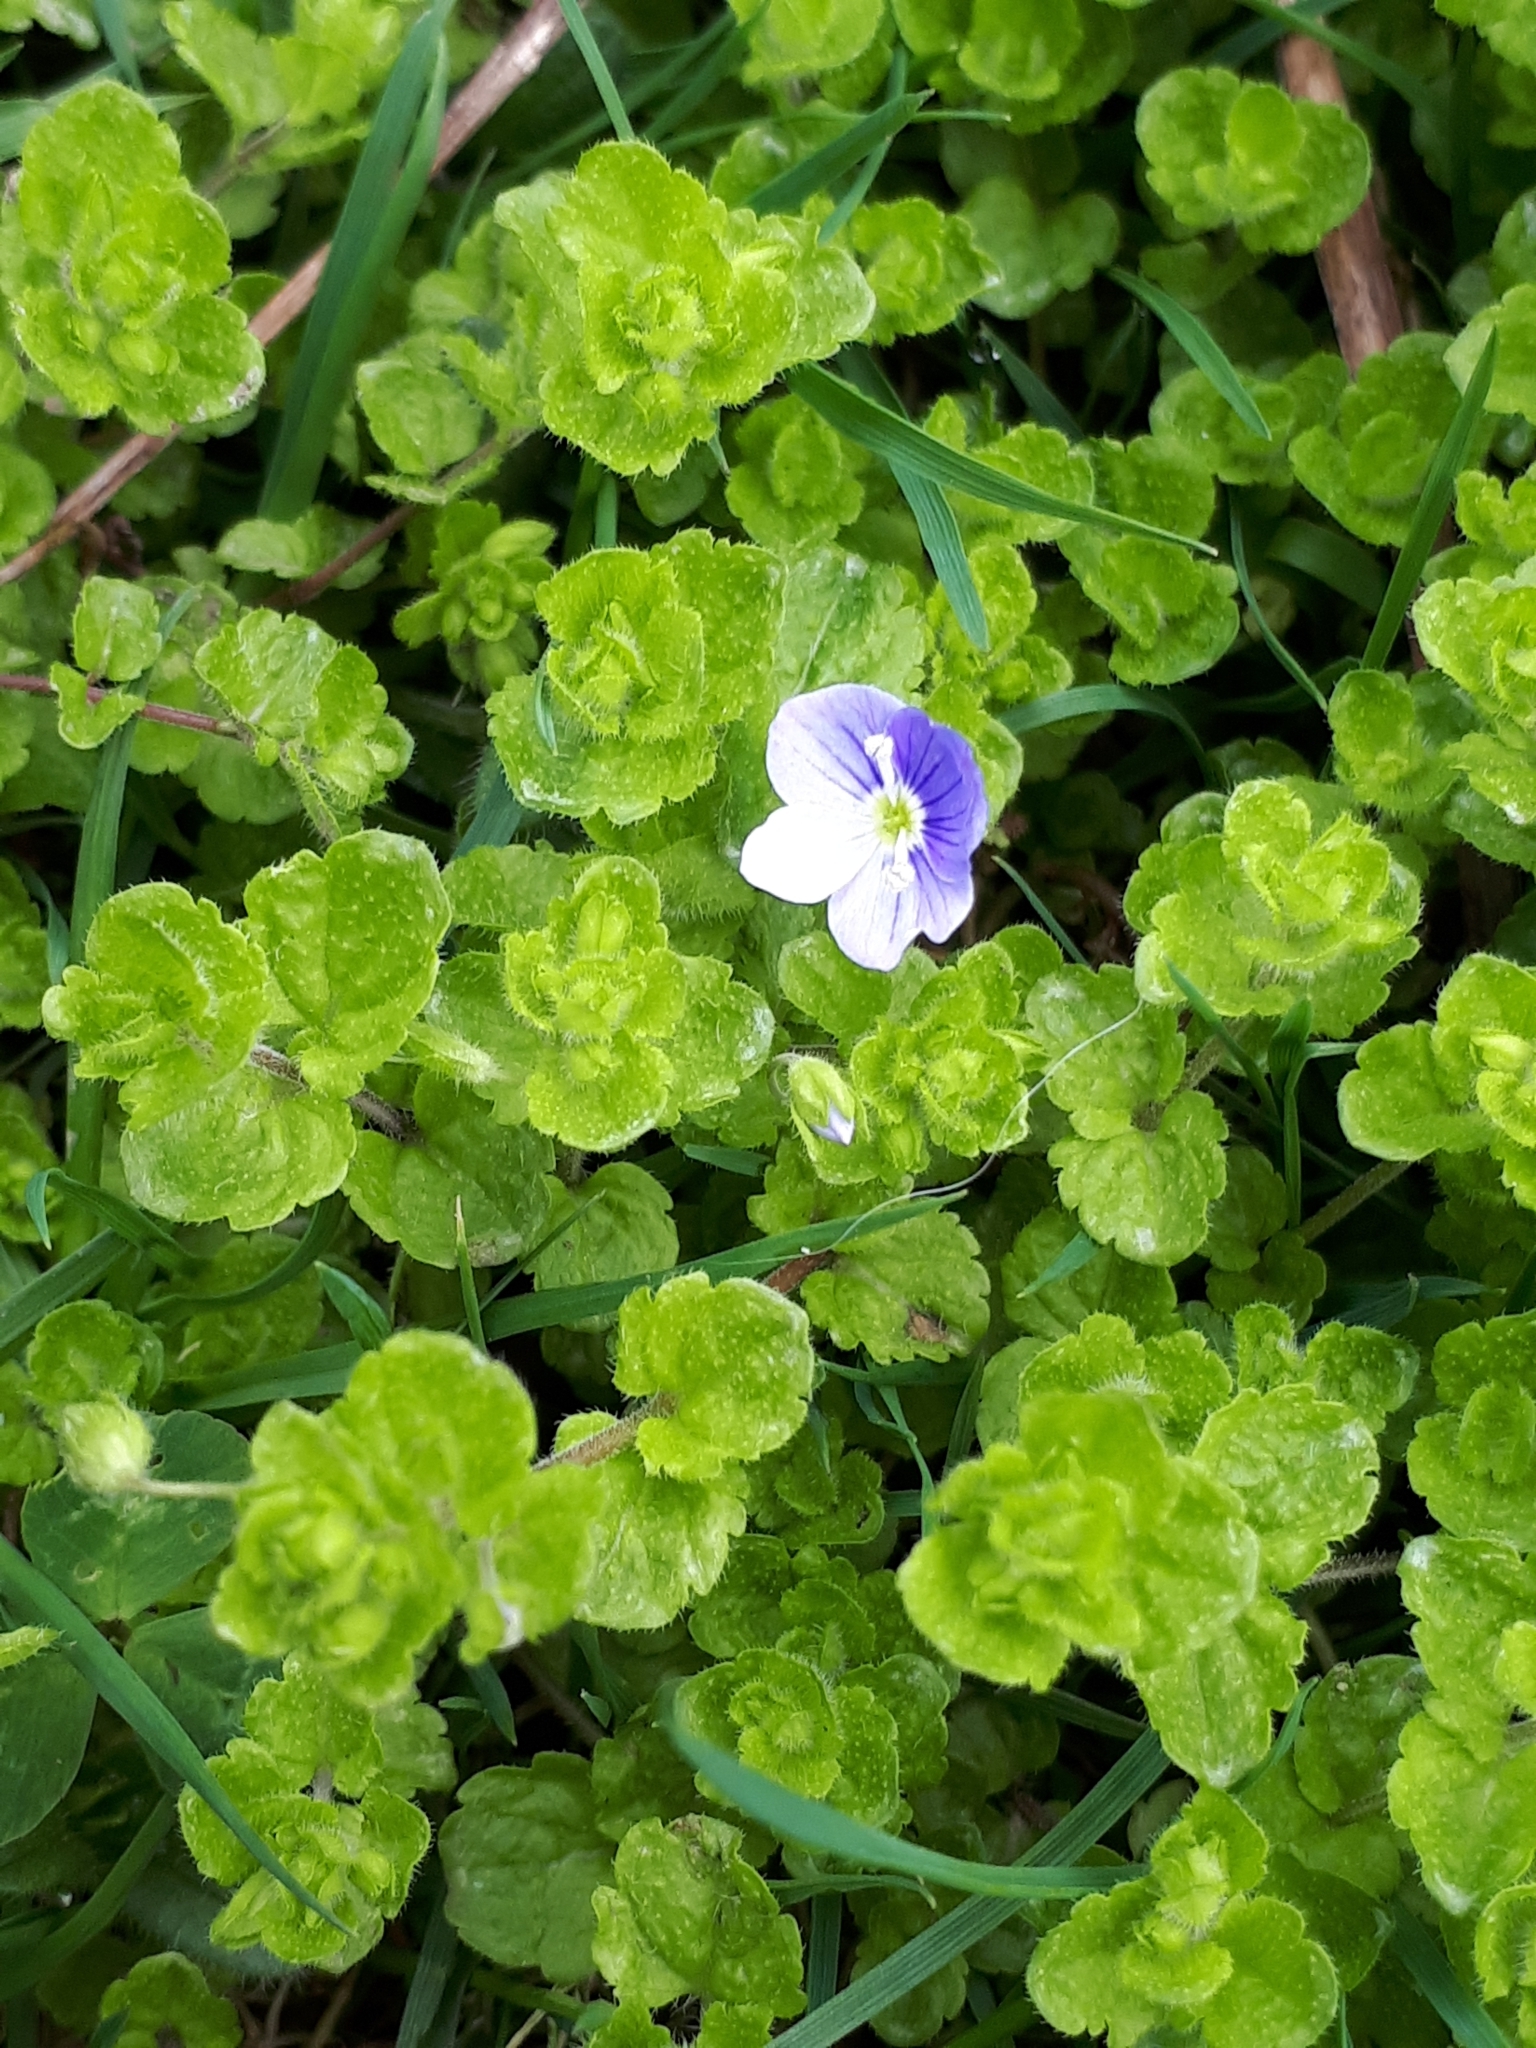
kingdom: Plantae
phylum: Tracheophyta
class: Magnoliopsida
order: Lamiales
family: Plantaginaceae
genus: Veronica
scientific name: Veronica filiformis
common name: Slender speedwell
